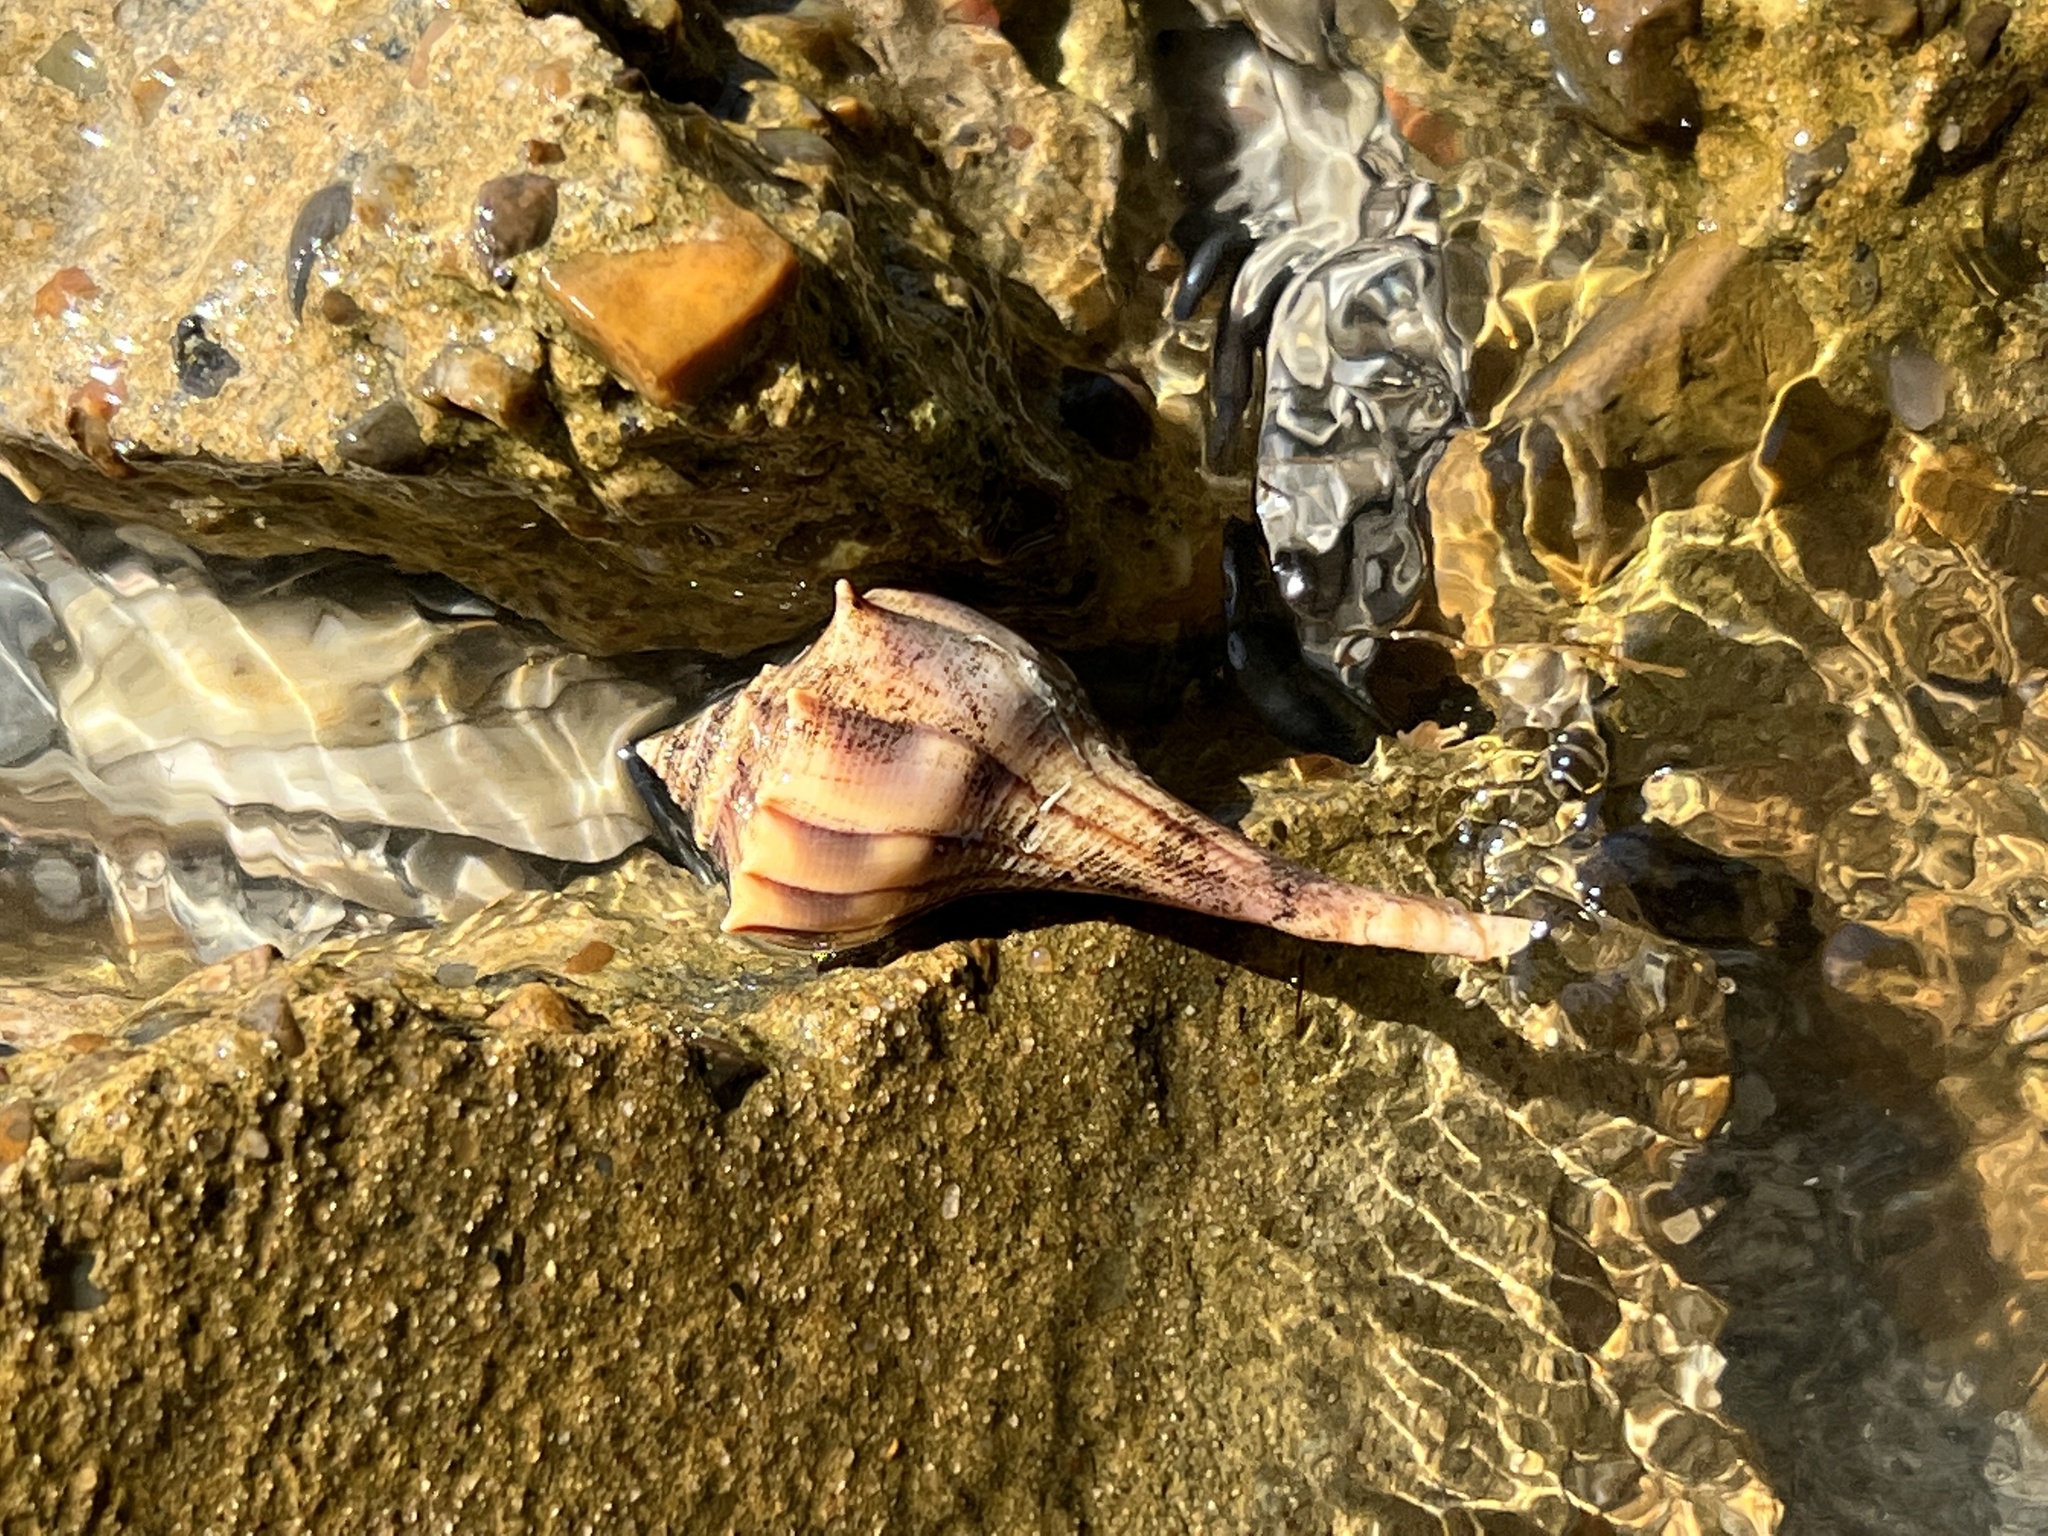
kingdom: Animalia
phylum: Mollusca
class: Gastropoda
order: Neogastropoda
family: Busyconidae
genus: Sinistrofulgur
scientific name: Sinistrofulgur pulleyi
